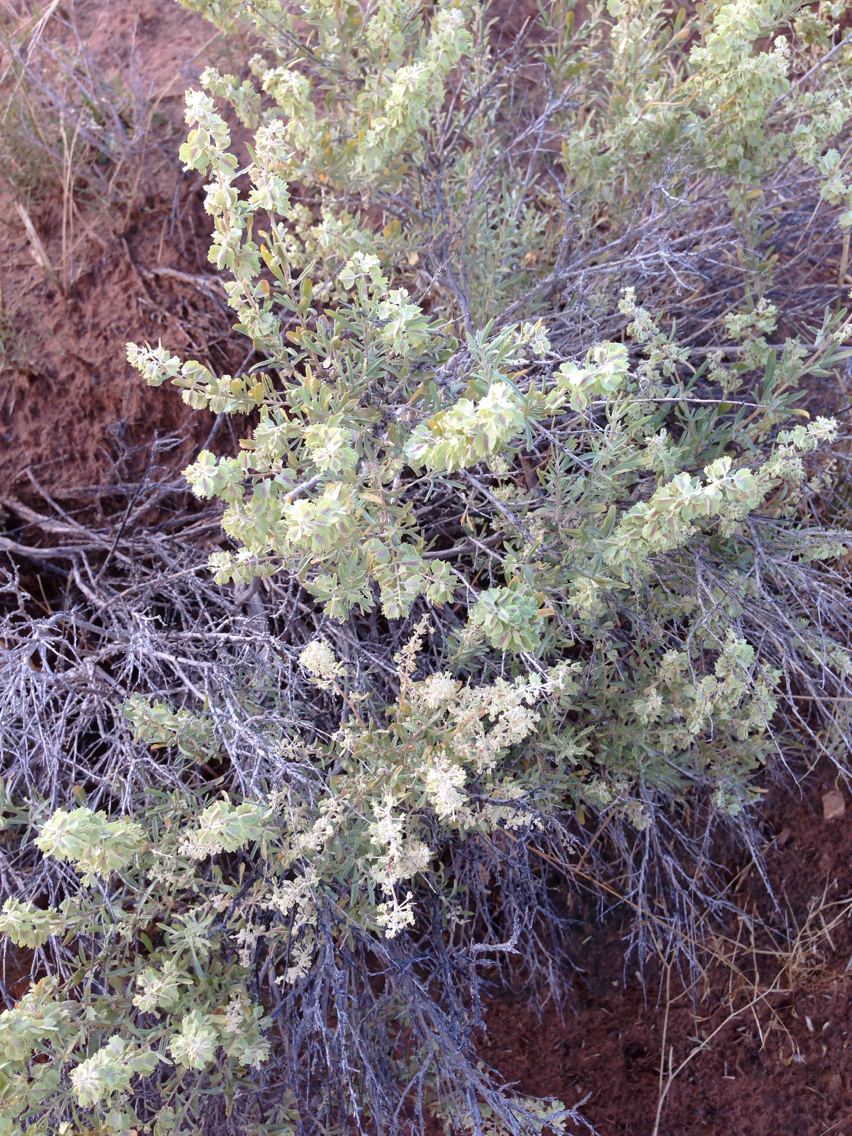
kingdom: Plantae
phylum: Tracheophyta
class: Magnoliopsida
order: Caryophyllales
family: Amaranthaceae
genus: Atriplex
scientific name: Atriplex canescens
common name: Four-wing saltbush
